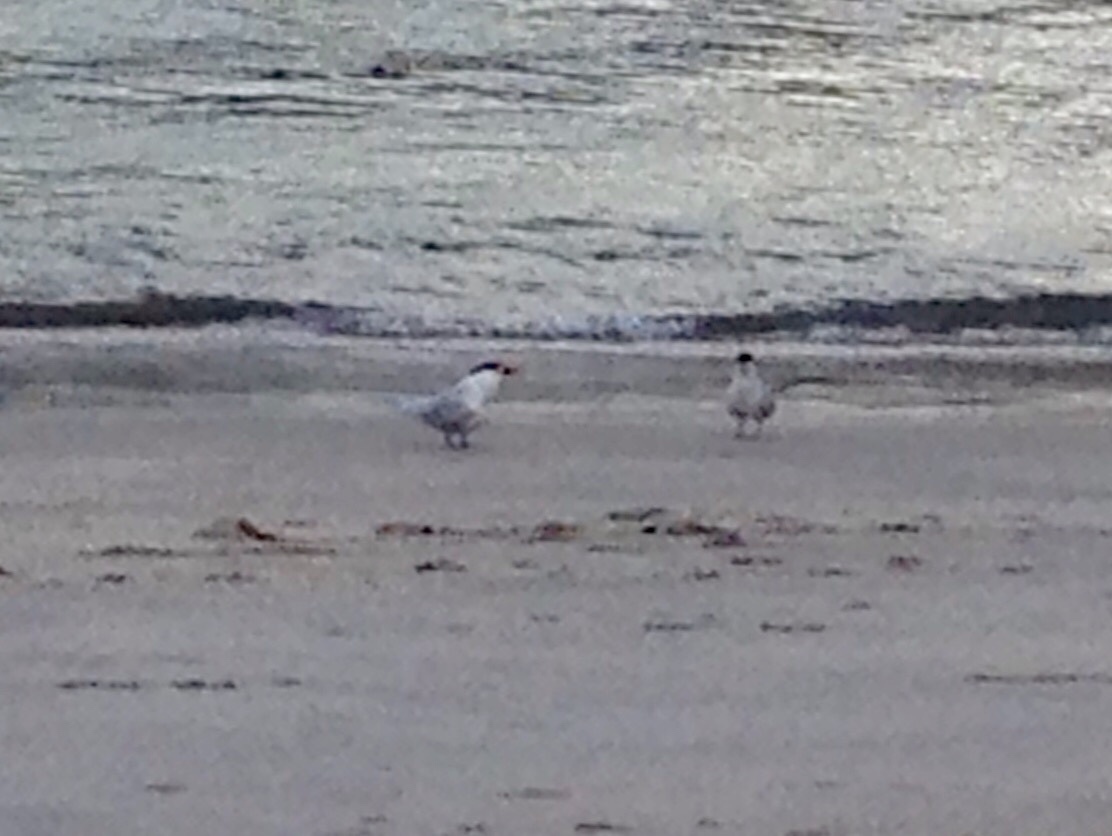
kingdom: Animalia
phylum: Chordata
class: Aves
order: Charadriiformes
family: Laridae
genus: Hydroprogne
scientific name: Hydroprogne caspia
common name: Caspian tern
